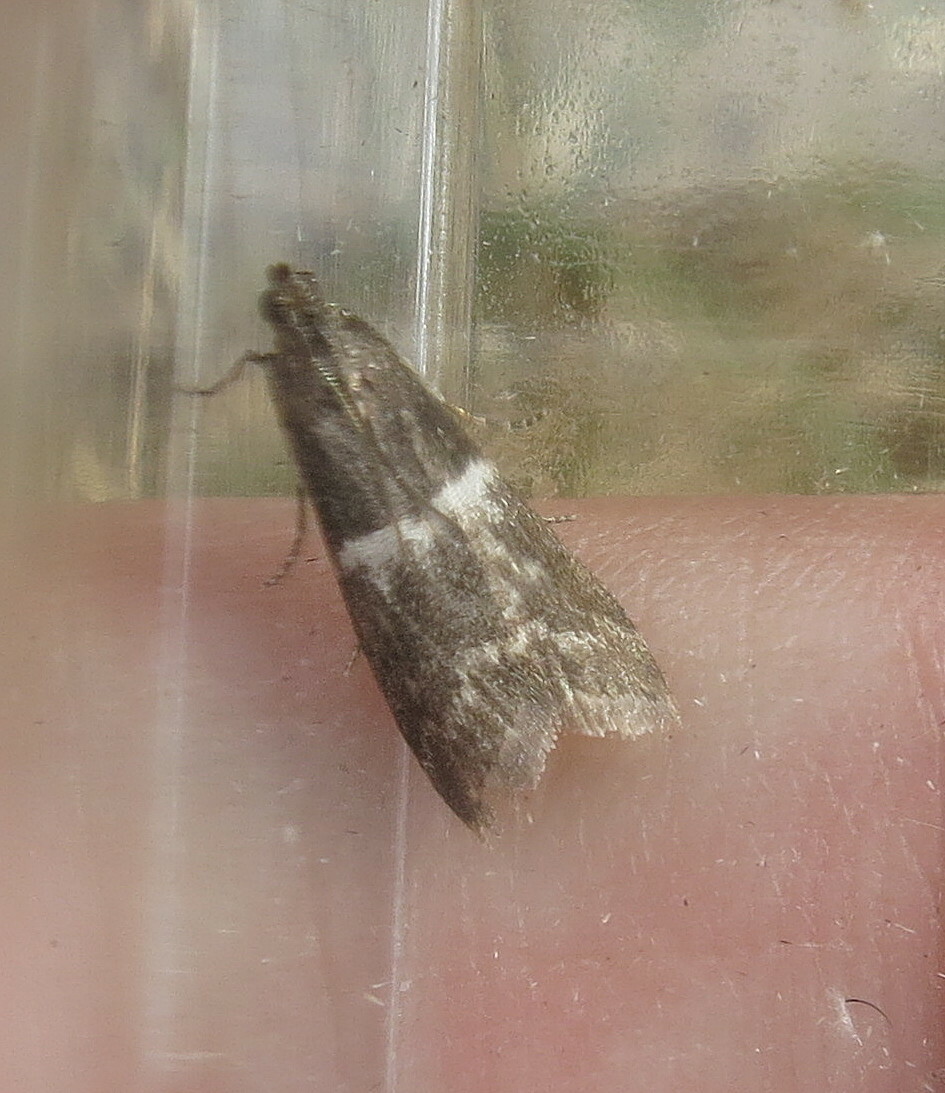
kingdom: Animalia
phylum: Arthropoda
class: Insecta
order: Lepidoptera
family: Pyralidae
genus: Elegia
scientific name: Elegia similella
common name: White-barred knot-horn
